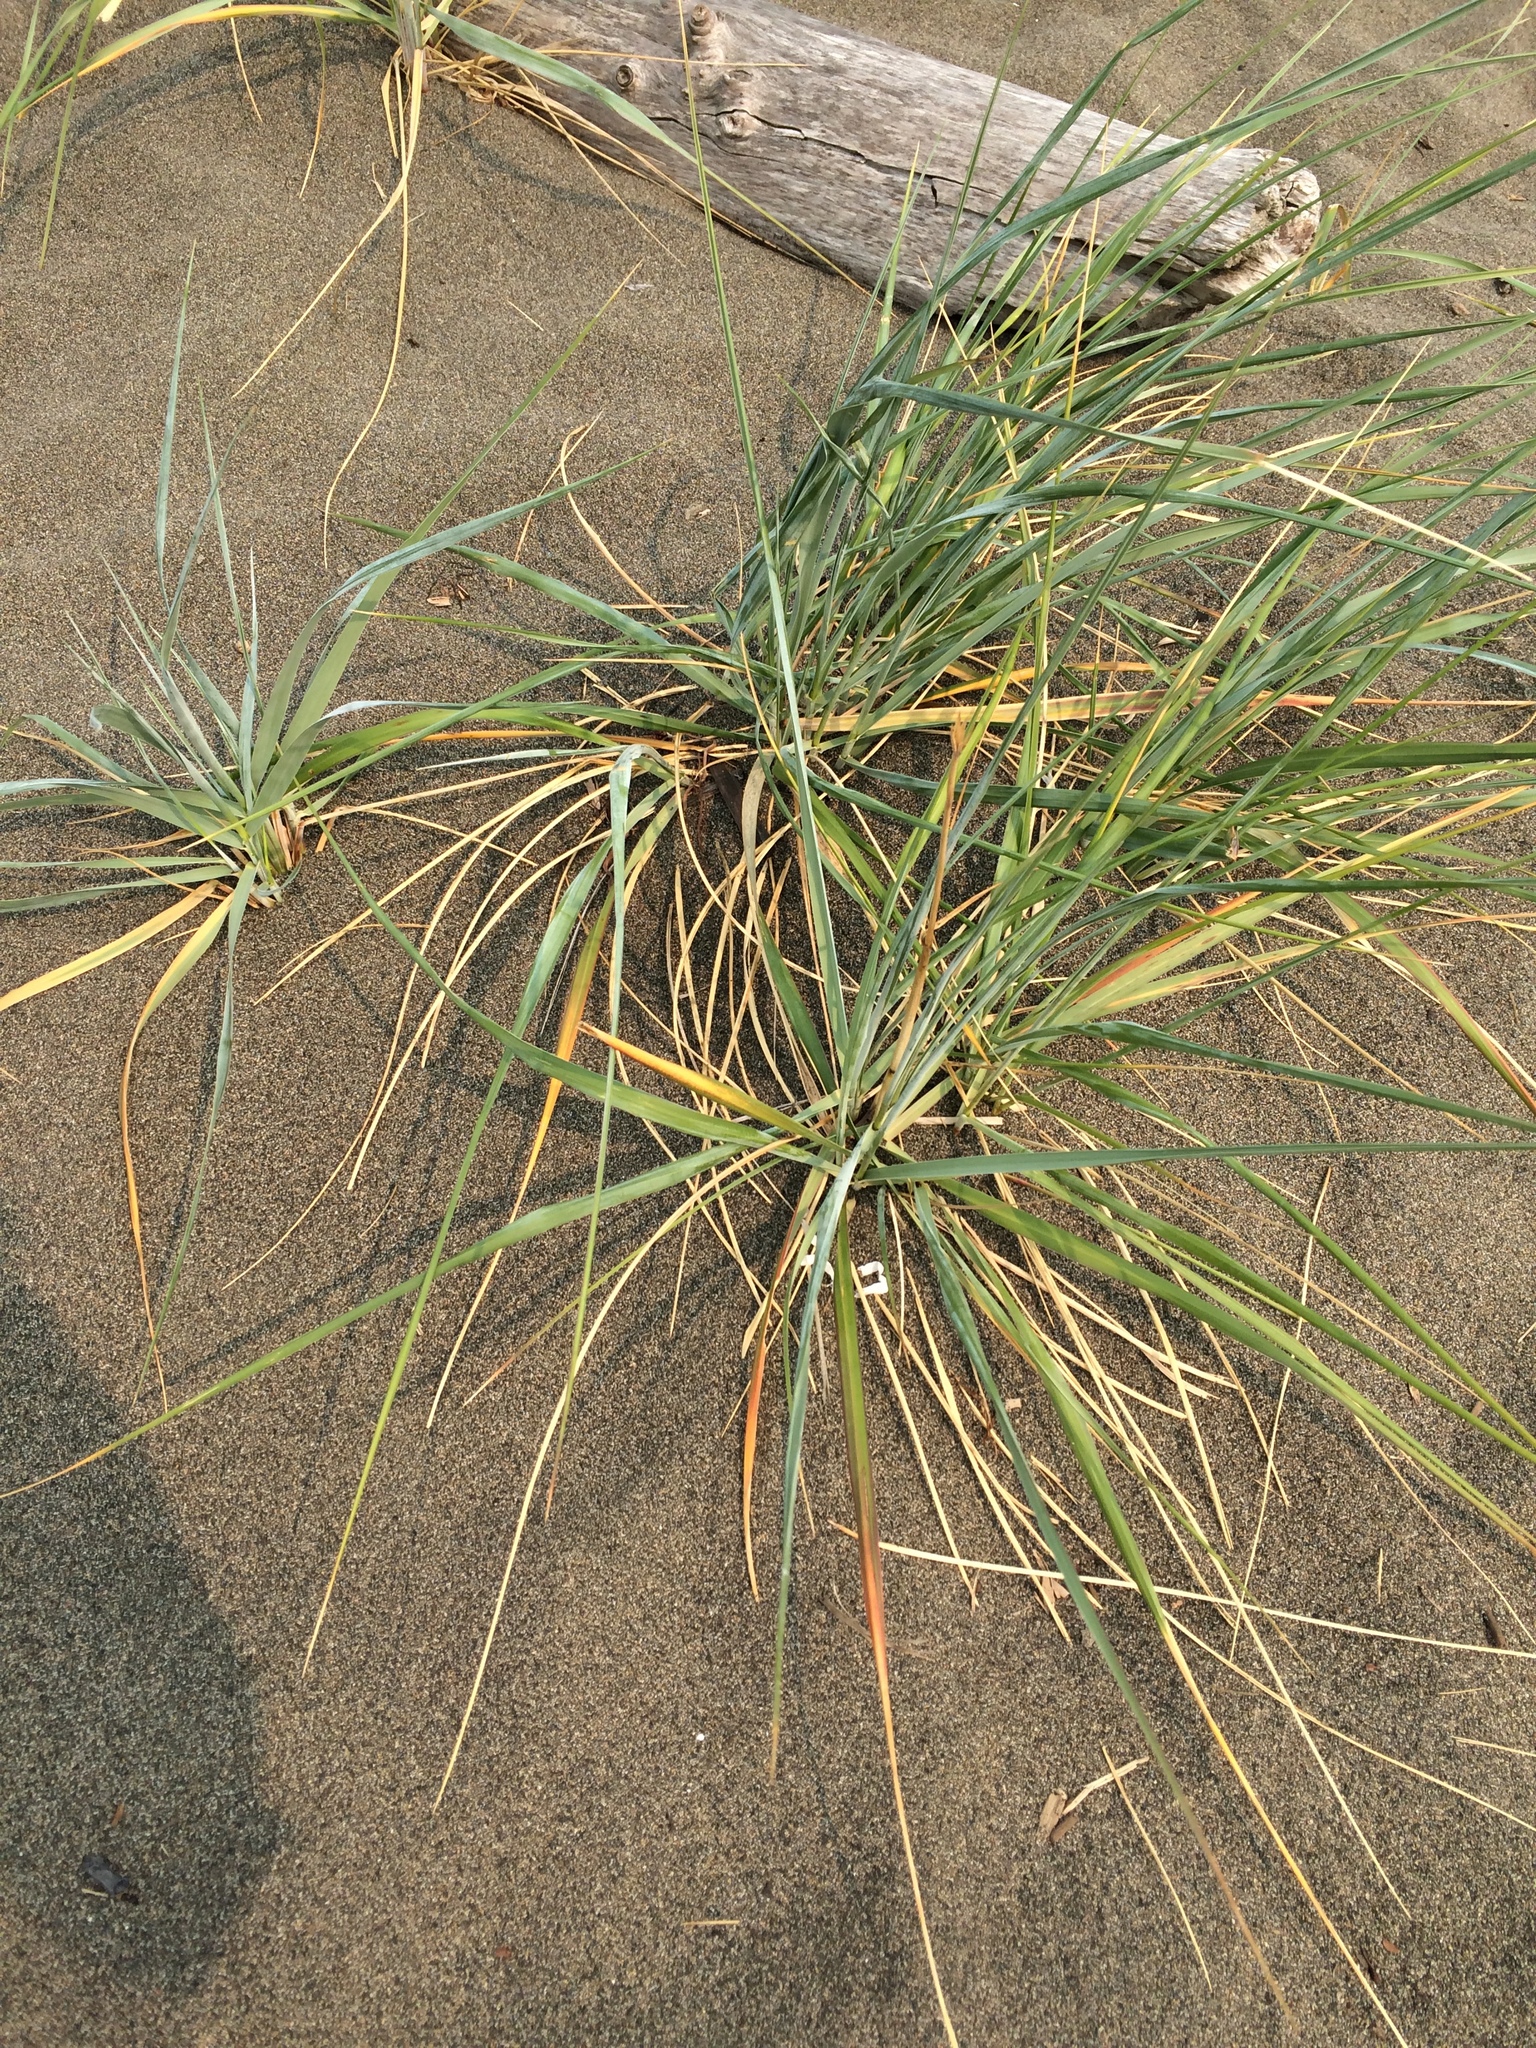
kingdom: Plantae
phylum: Tracheophyta
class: Liliopsida
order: Poales
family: Poaceae
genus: Leymus
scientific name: Leymus mollis
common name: American dune grass
